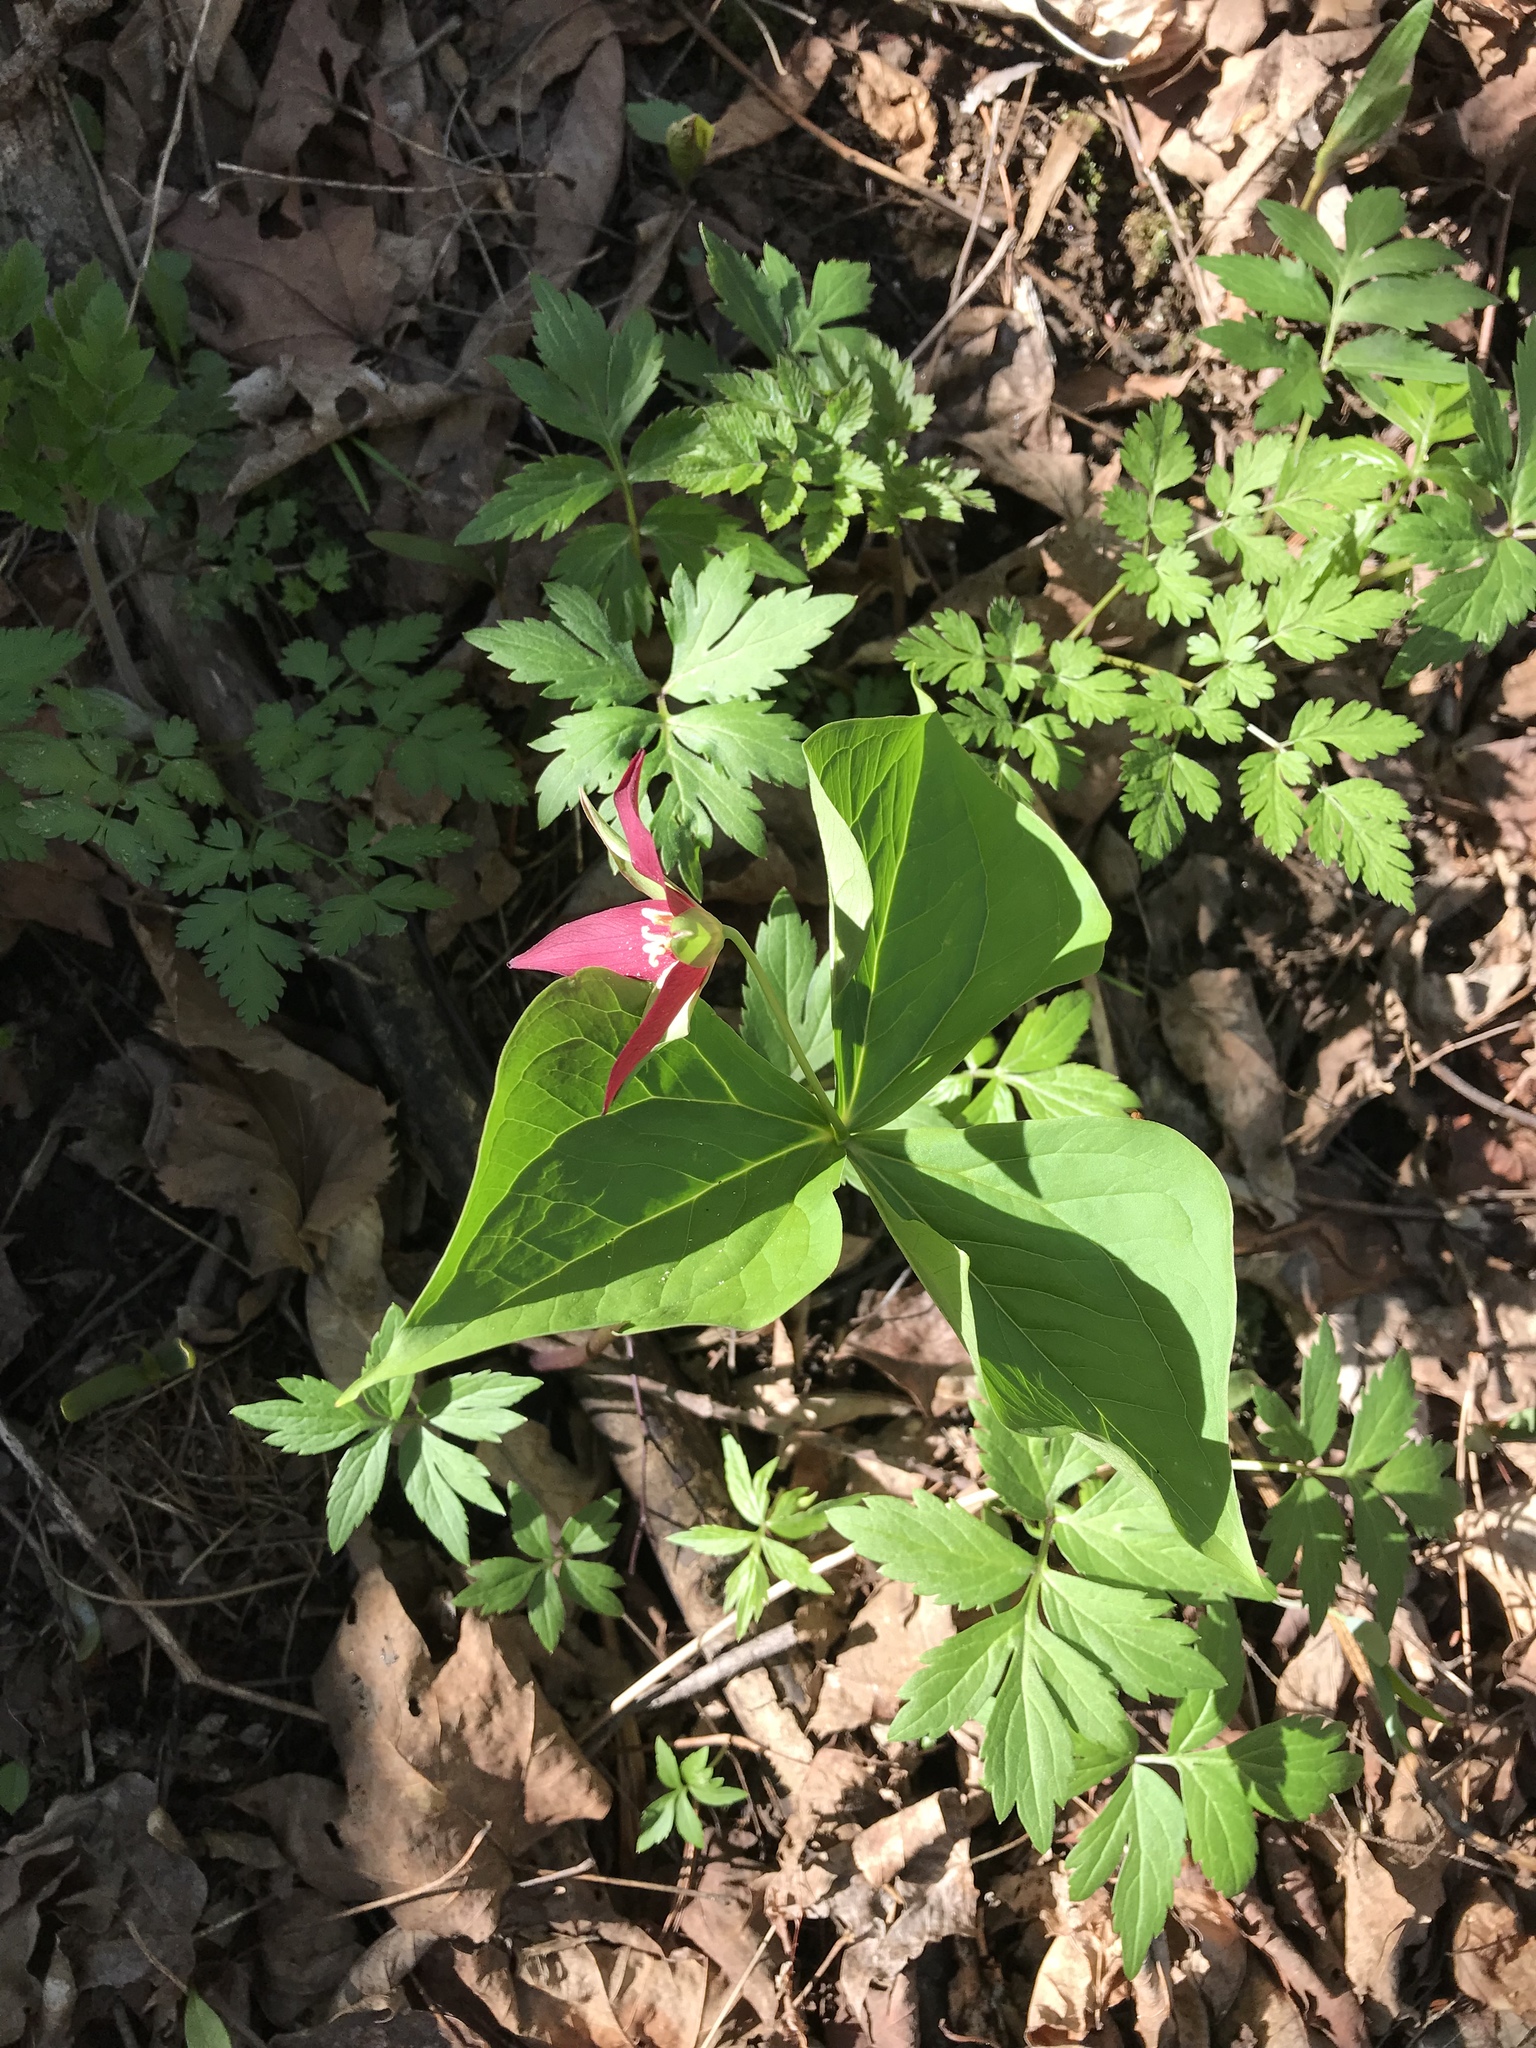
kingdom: Plantae
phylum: Tracheophyta
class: Liliopsida
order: Liliales
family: Melanthiaceae
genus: Trillium
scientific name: Trillium erectum
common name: Purple trillium
